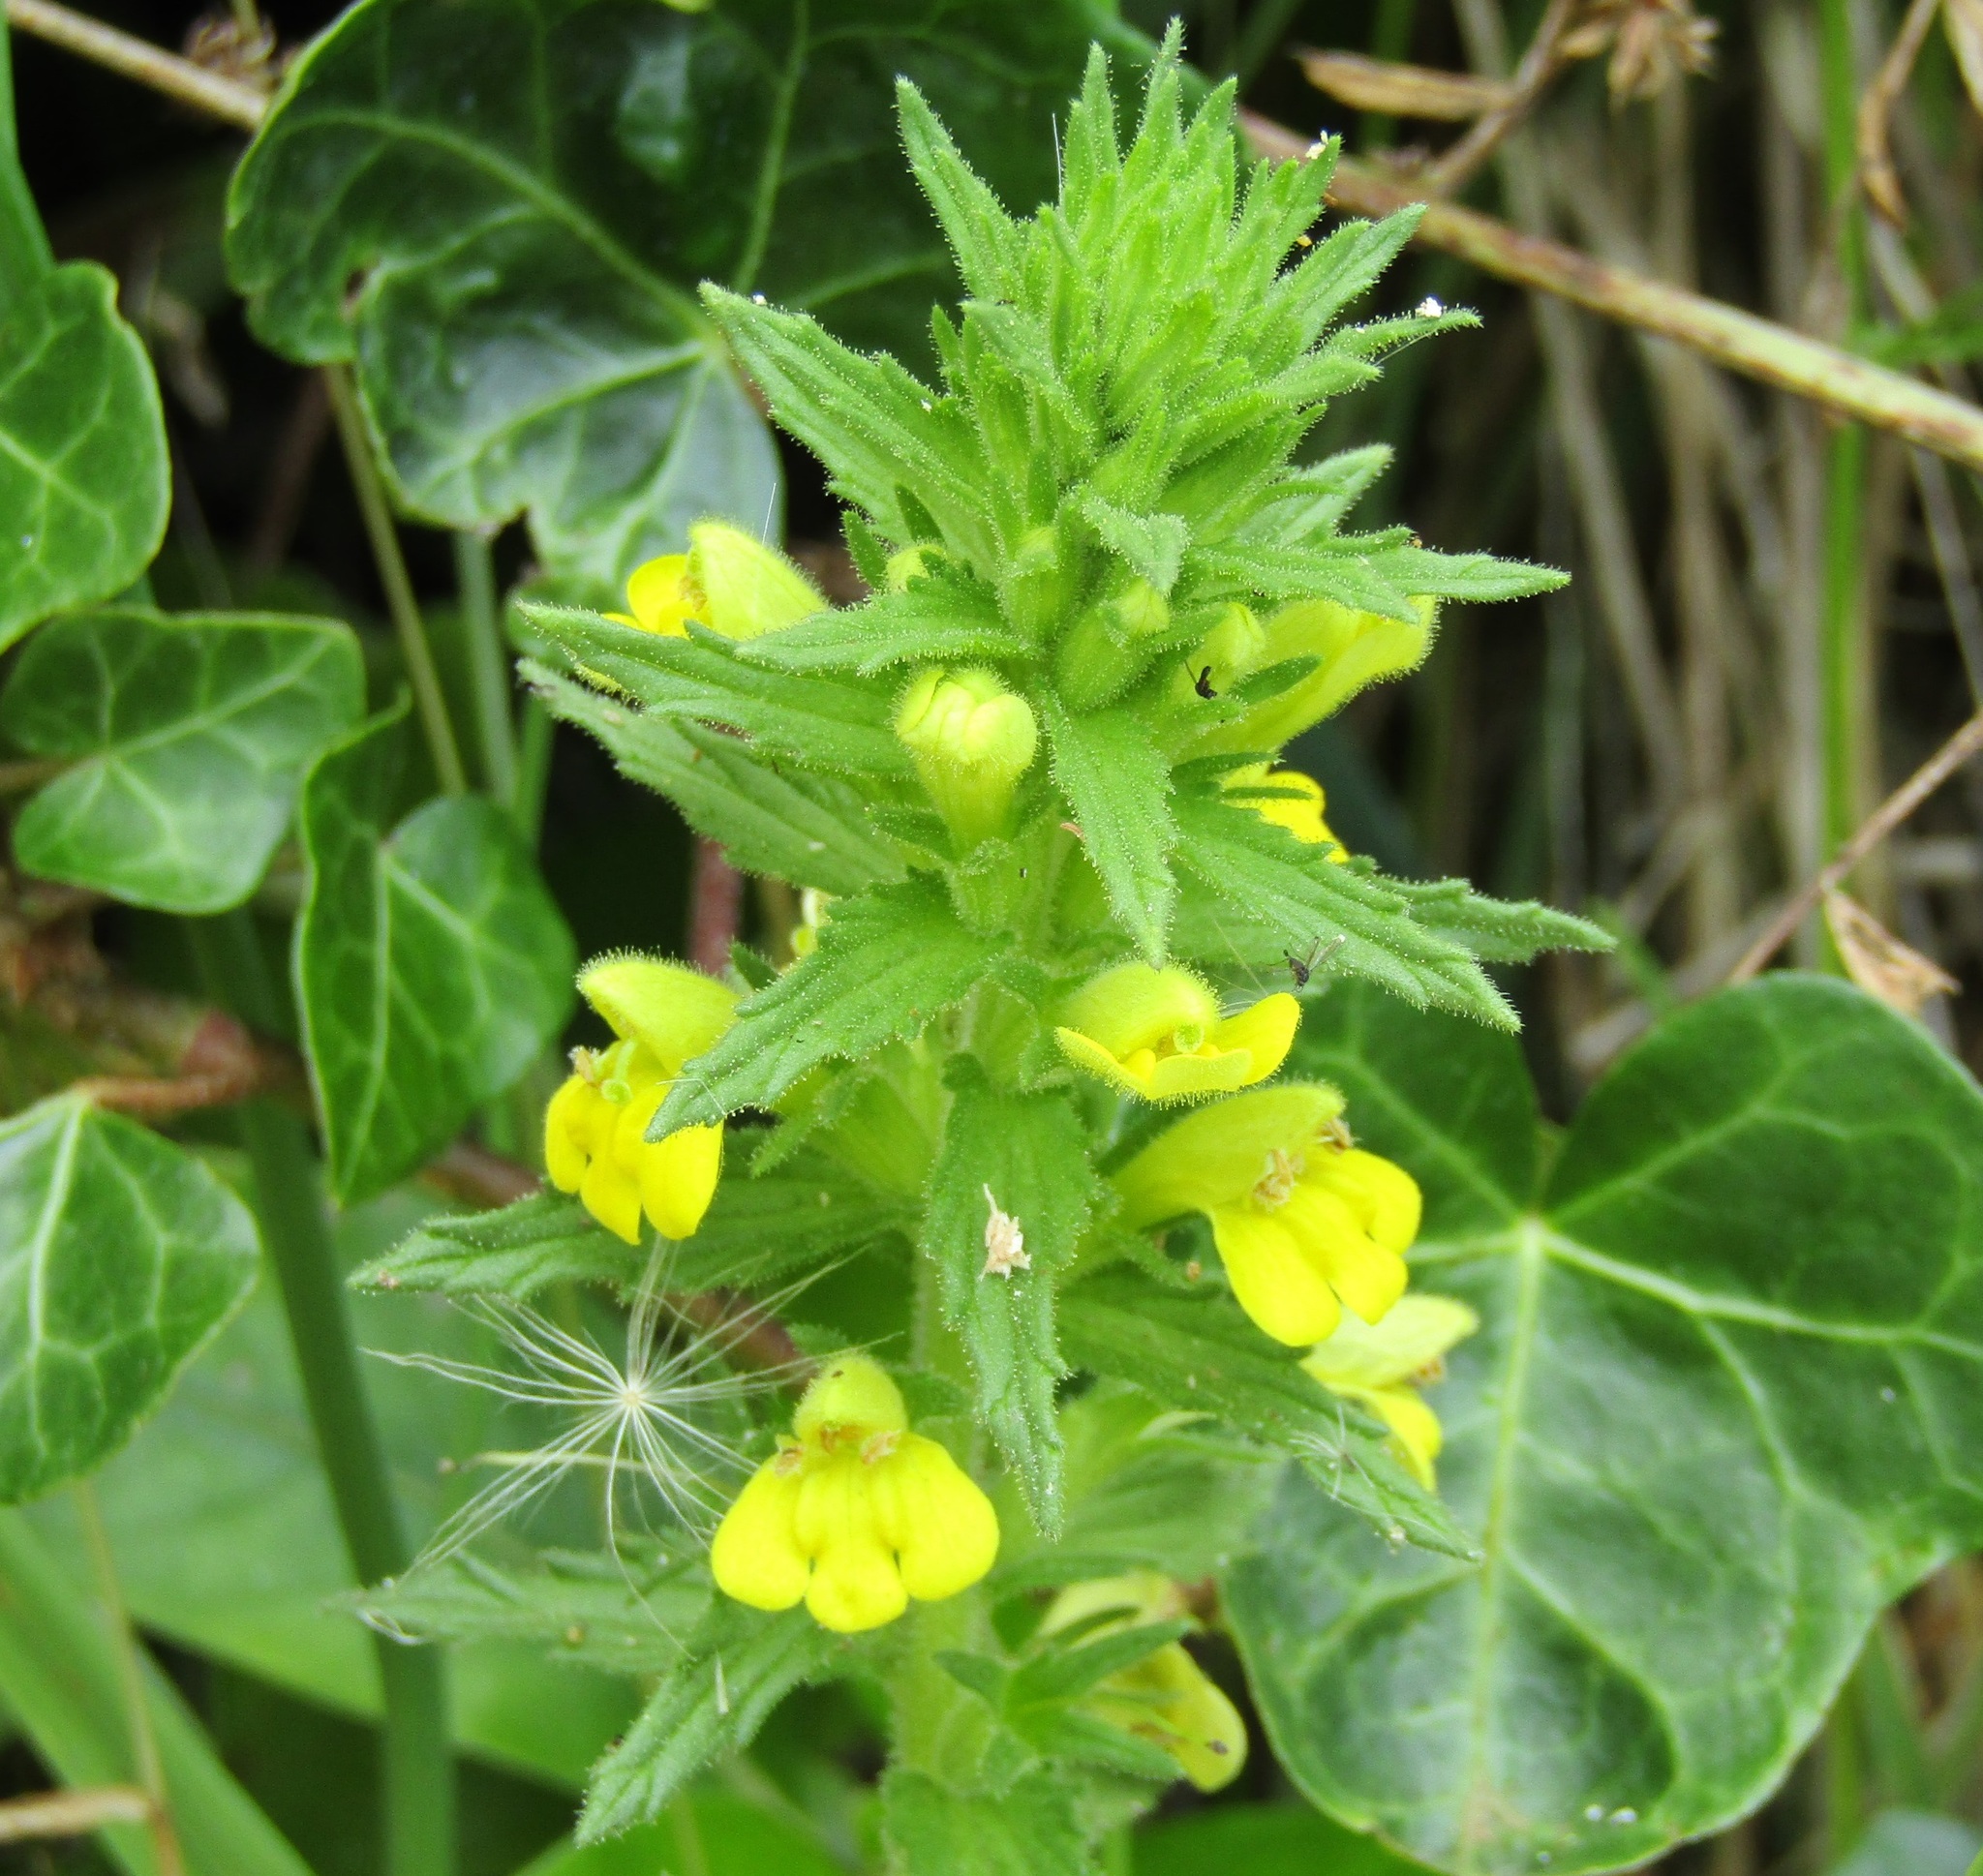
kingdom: Plantae
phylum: Tracheophyta
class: Magnoliopsida
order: Lamiales
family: Orobanchaceae
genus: Bellardia
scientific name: Bellardia viscosa
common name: Sticky parentucellia
